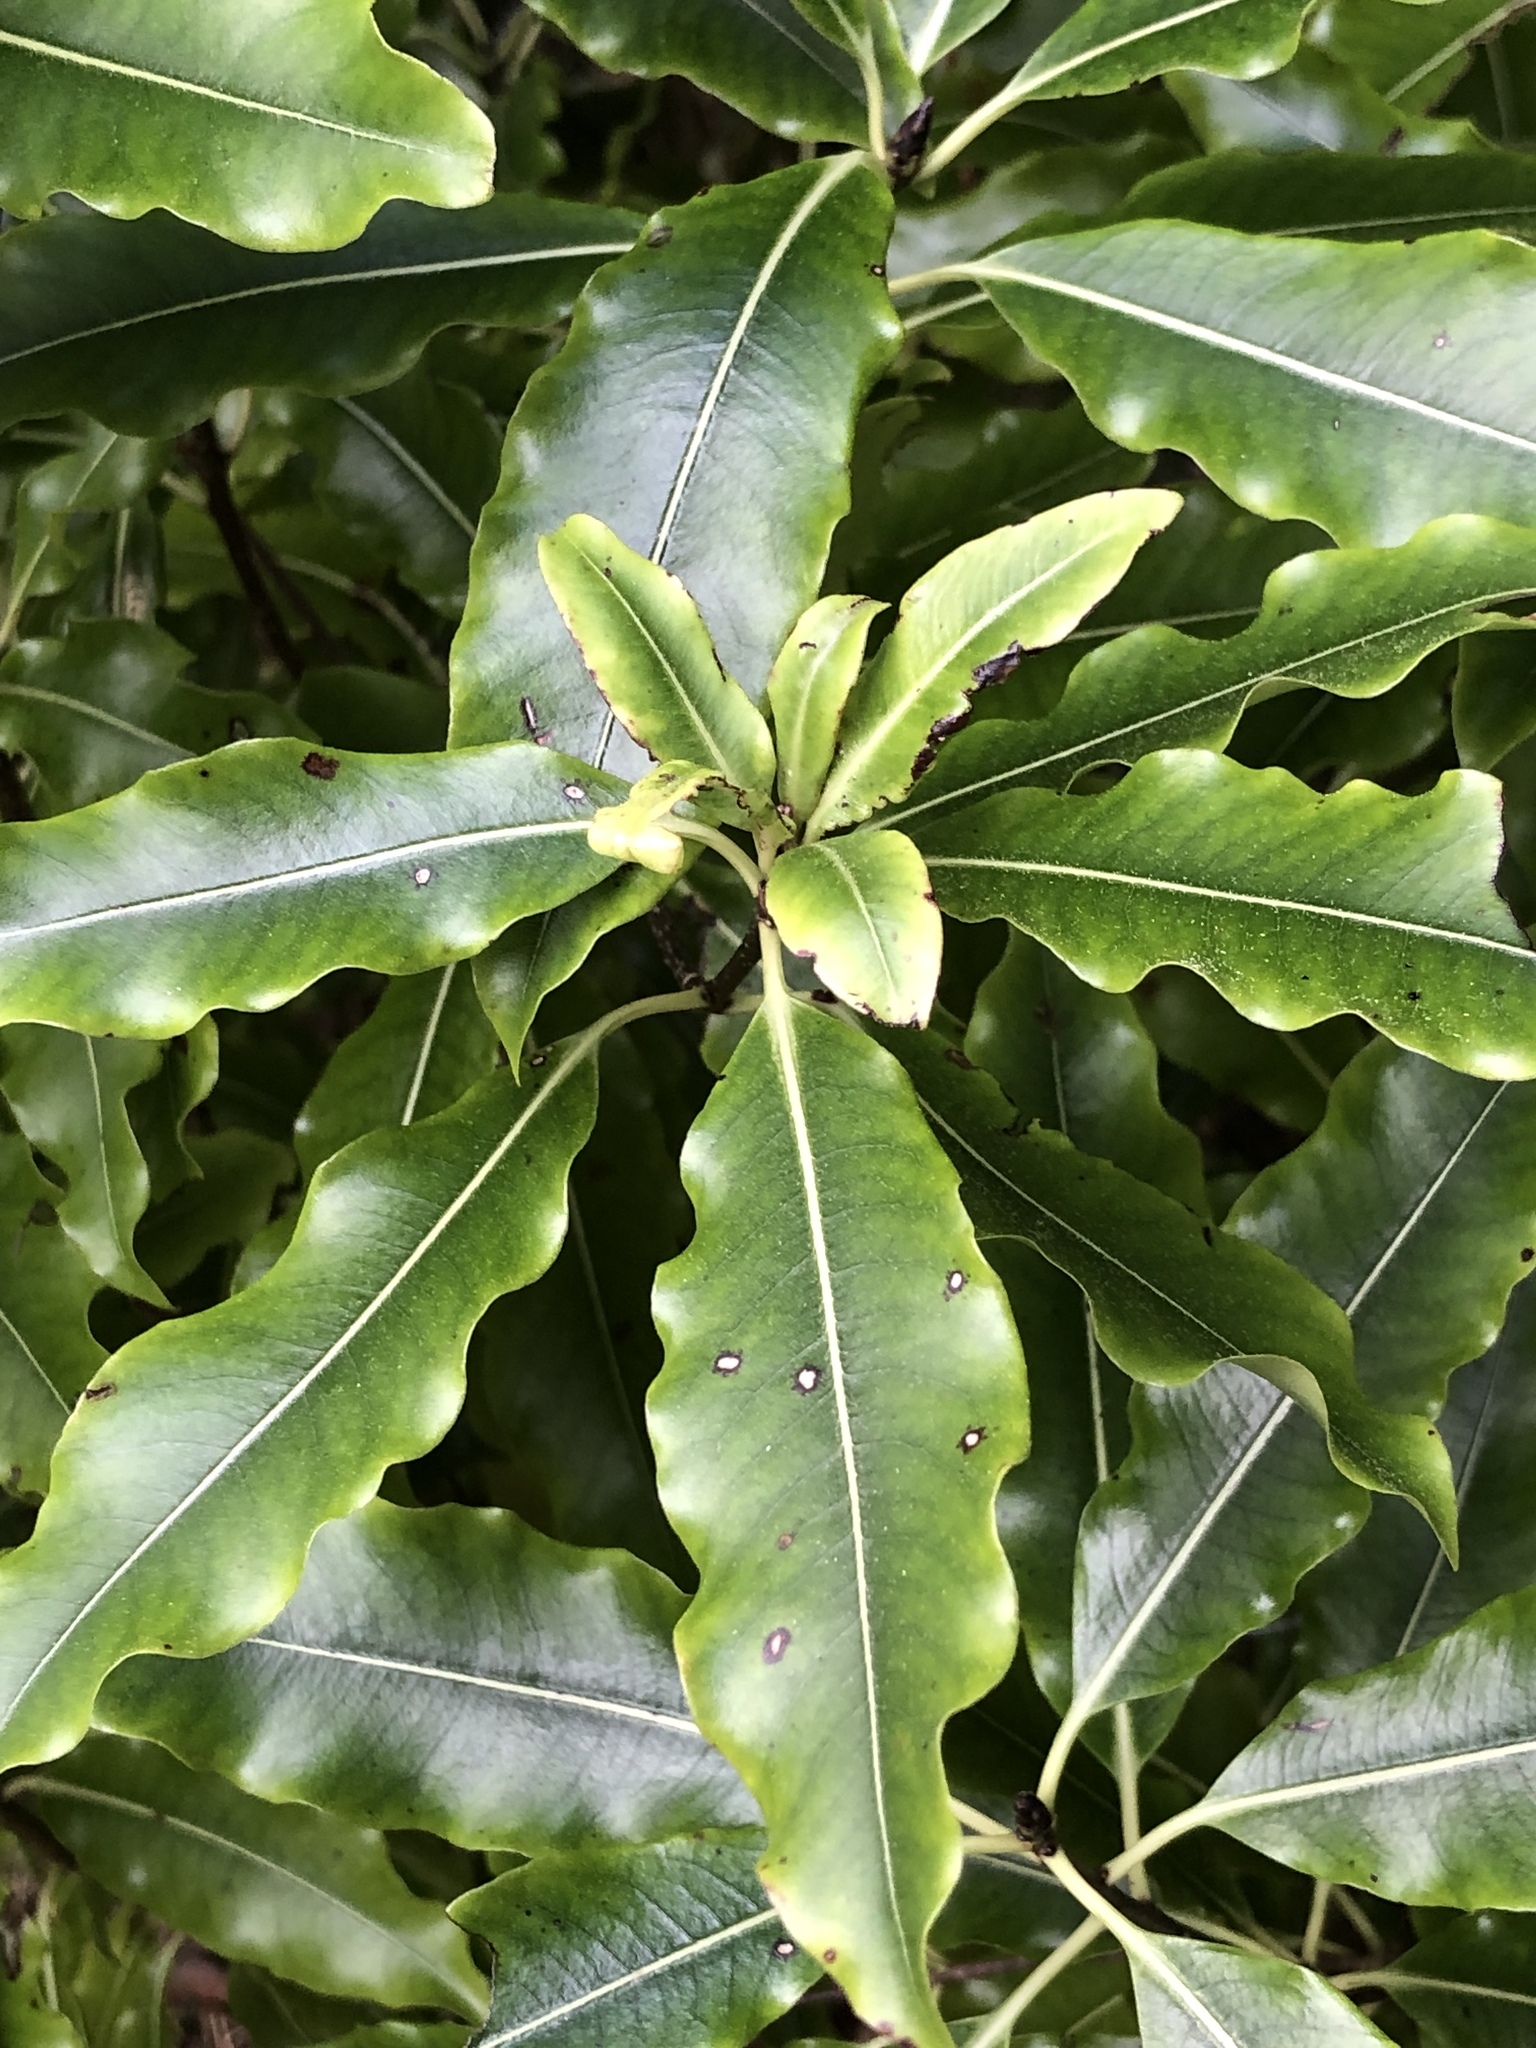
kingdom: Plantae
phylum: Tracheophyta
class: Magnoliopsida
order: Apiales
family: Pittosporaceae
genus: Pittosporum
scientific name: Pittosporum eugenioides
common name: Lemonwood
